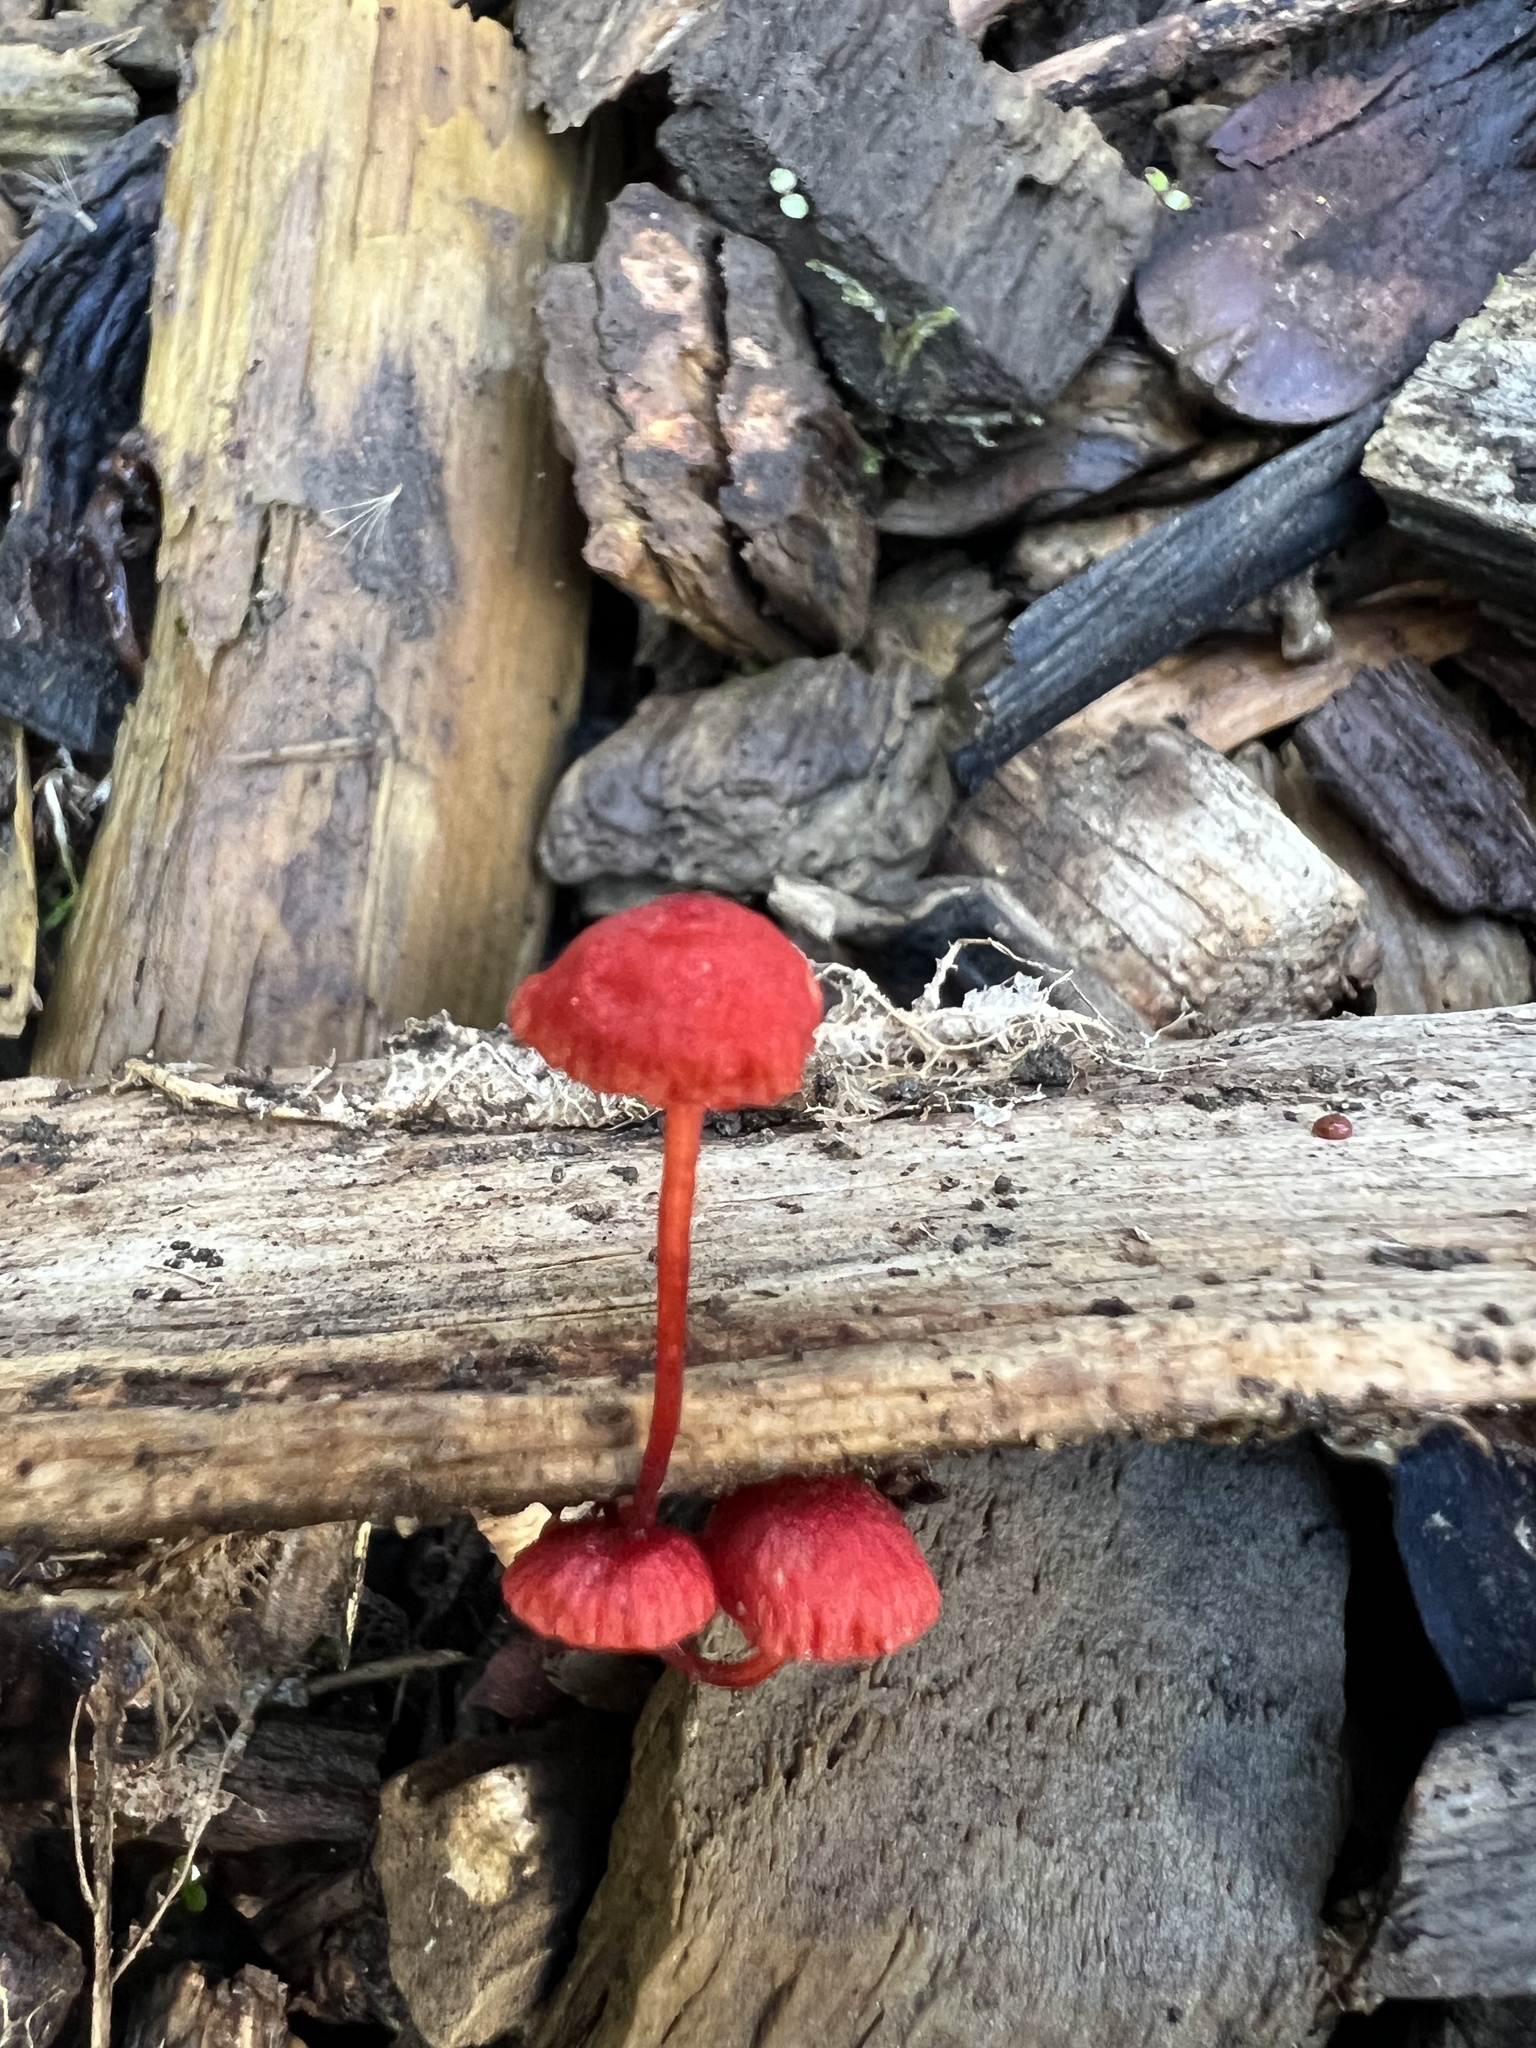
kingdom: Fungi
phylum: Basidiomycota
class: Agaricomycetes
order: Agaricales
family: Mycenaceae
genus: Cruentomycena
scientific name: Cruentomycena viscidocruenta
